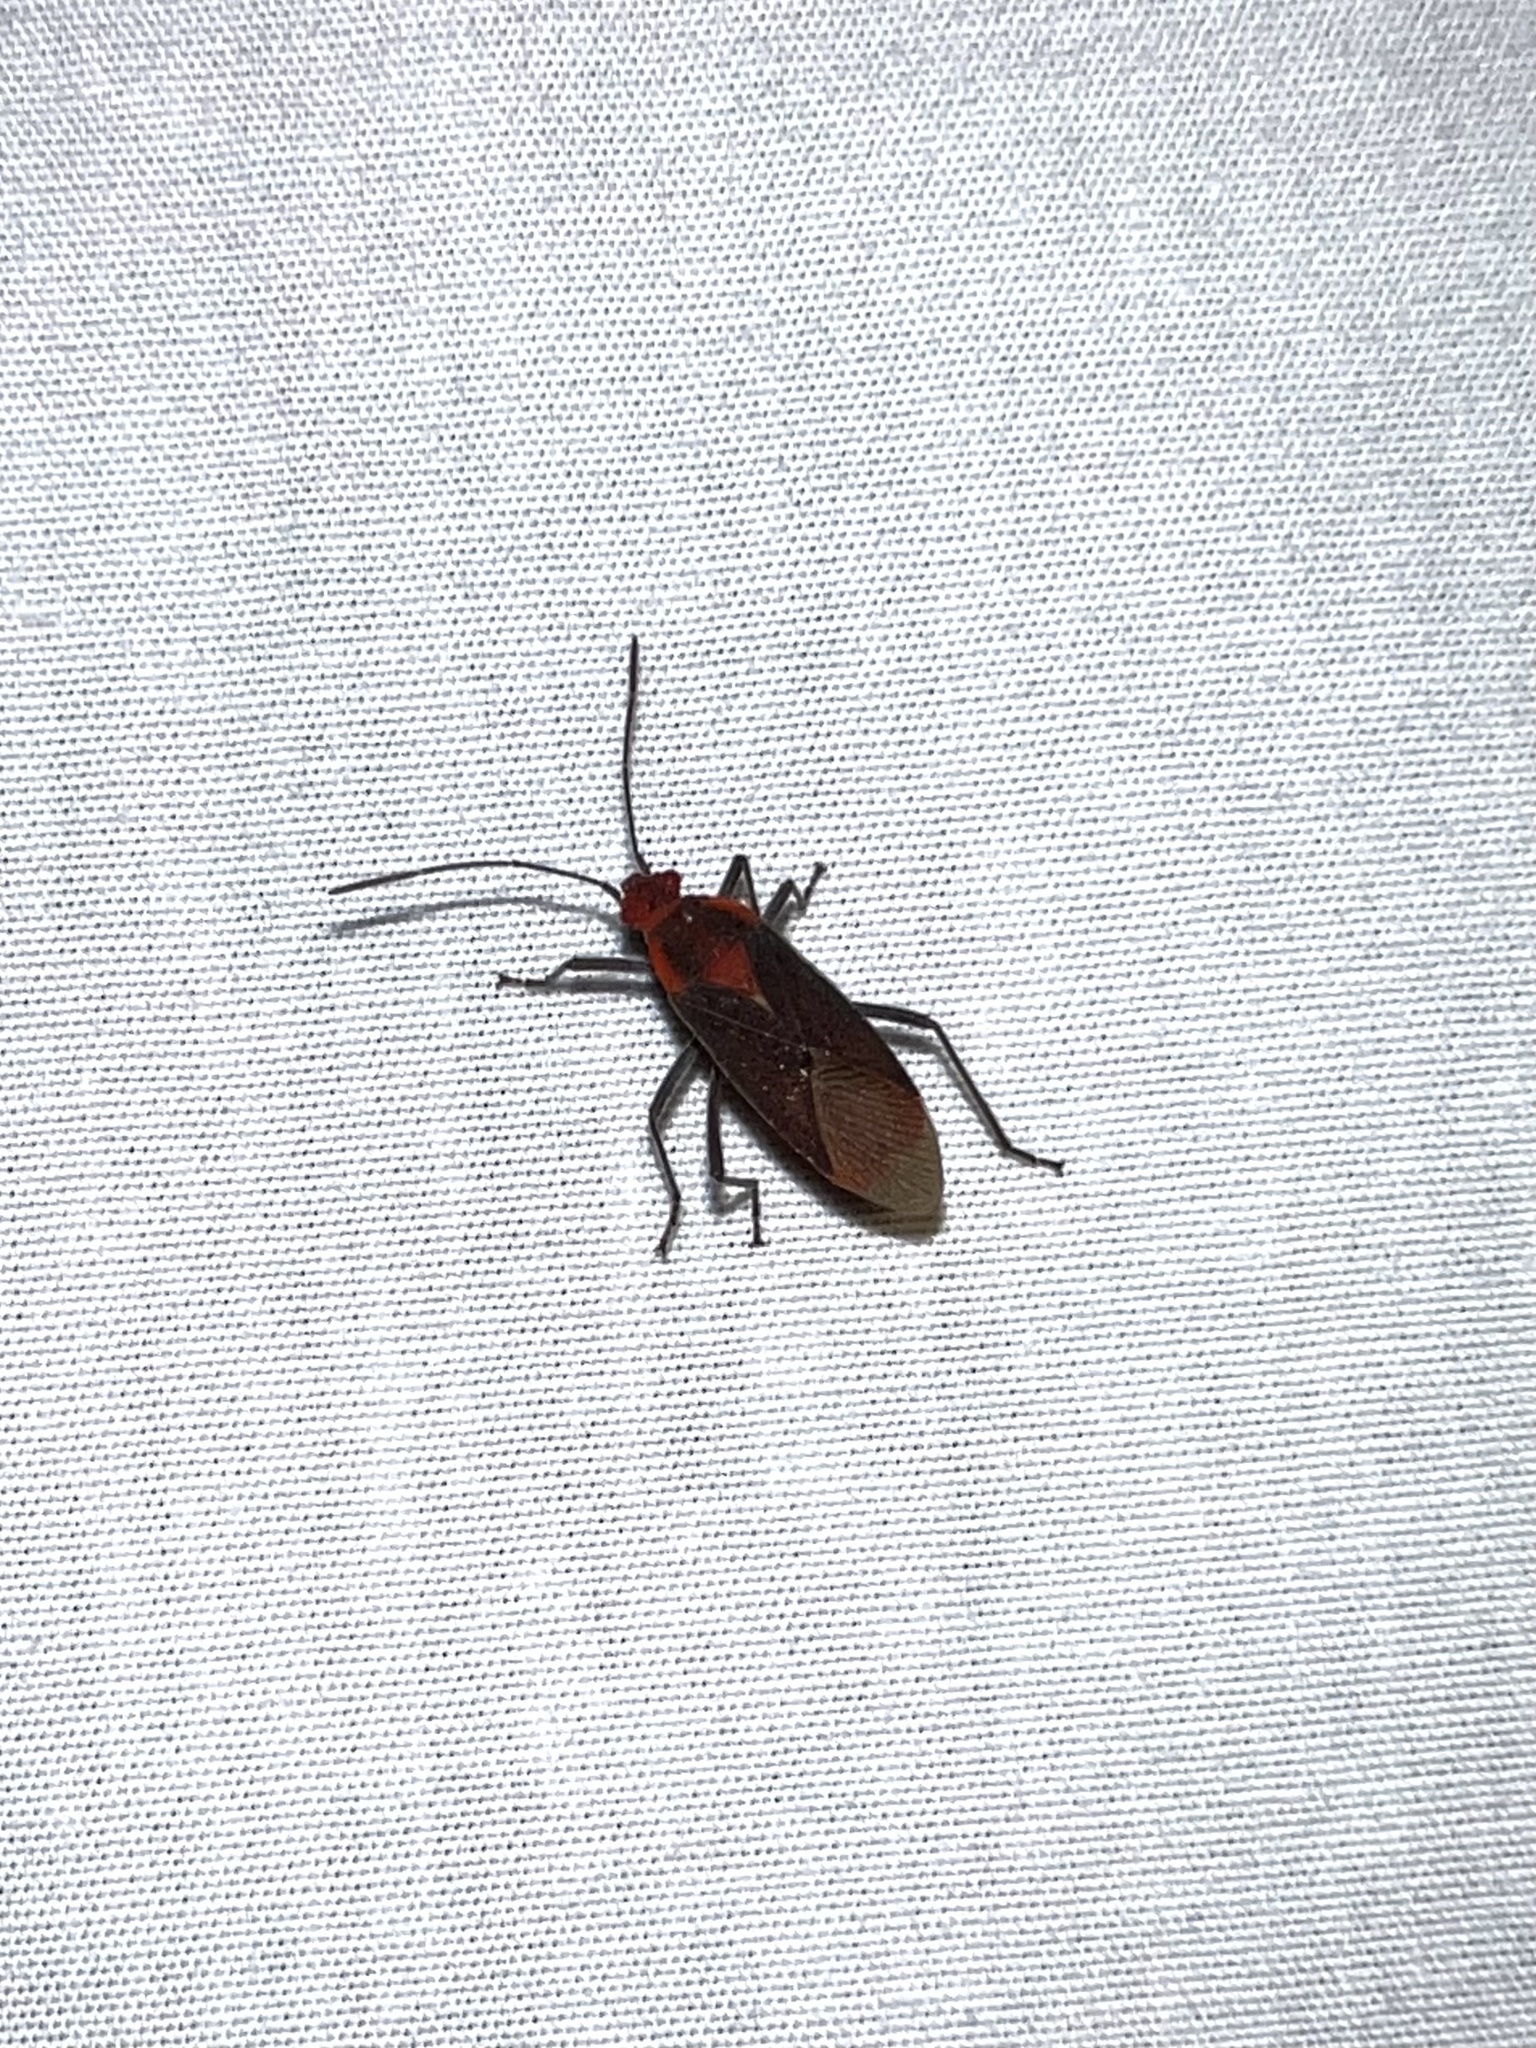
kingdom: Animalia
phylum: Arthropoda
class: Insecta
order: Hemiptera
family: Rhopalidae
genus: Jadera
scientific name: Jadera sanguinolenta
